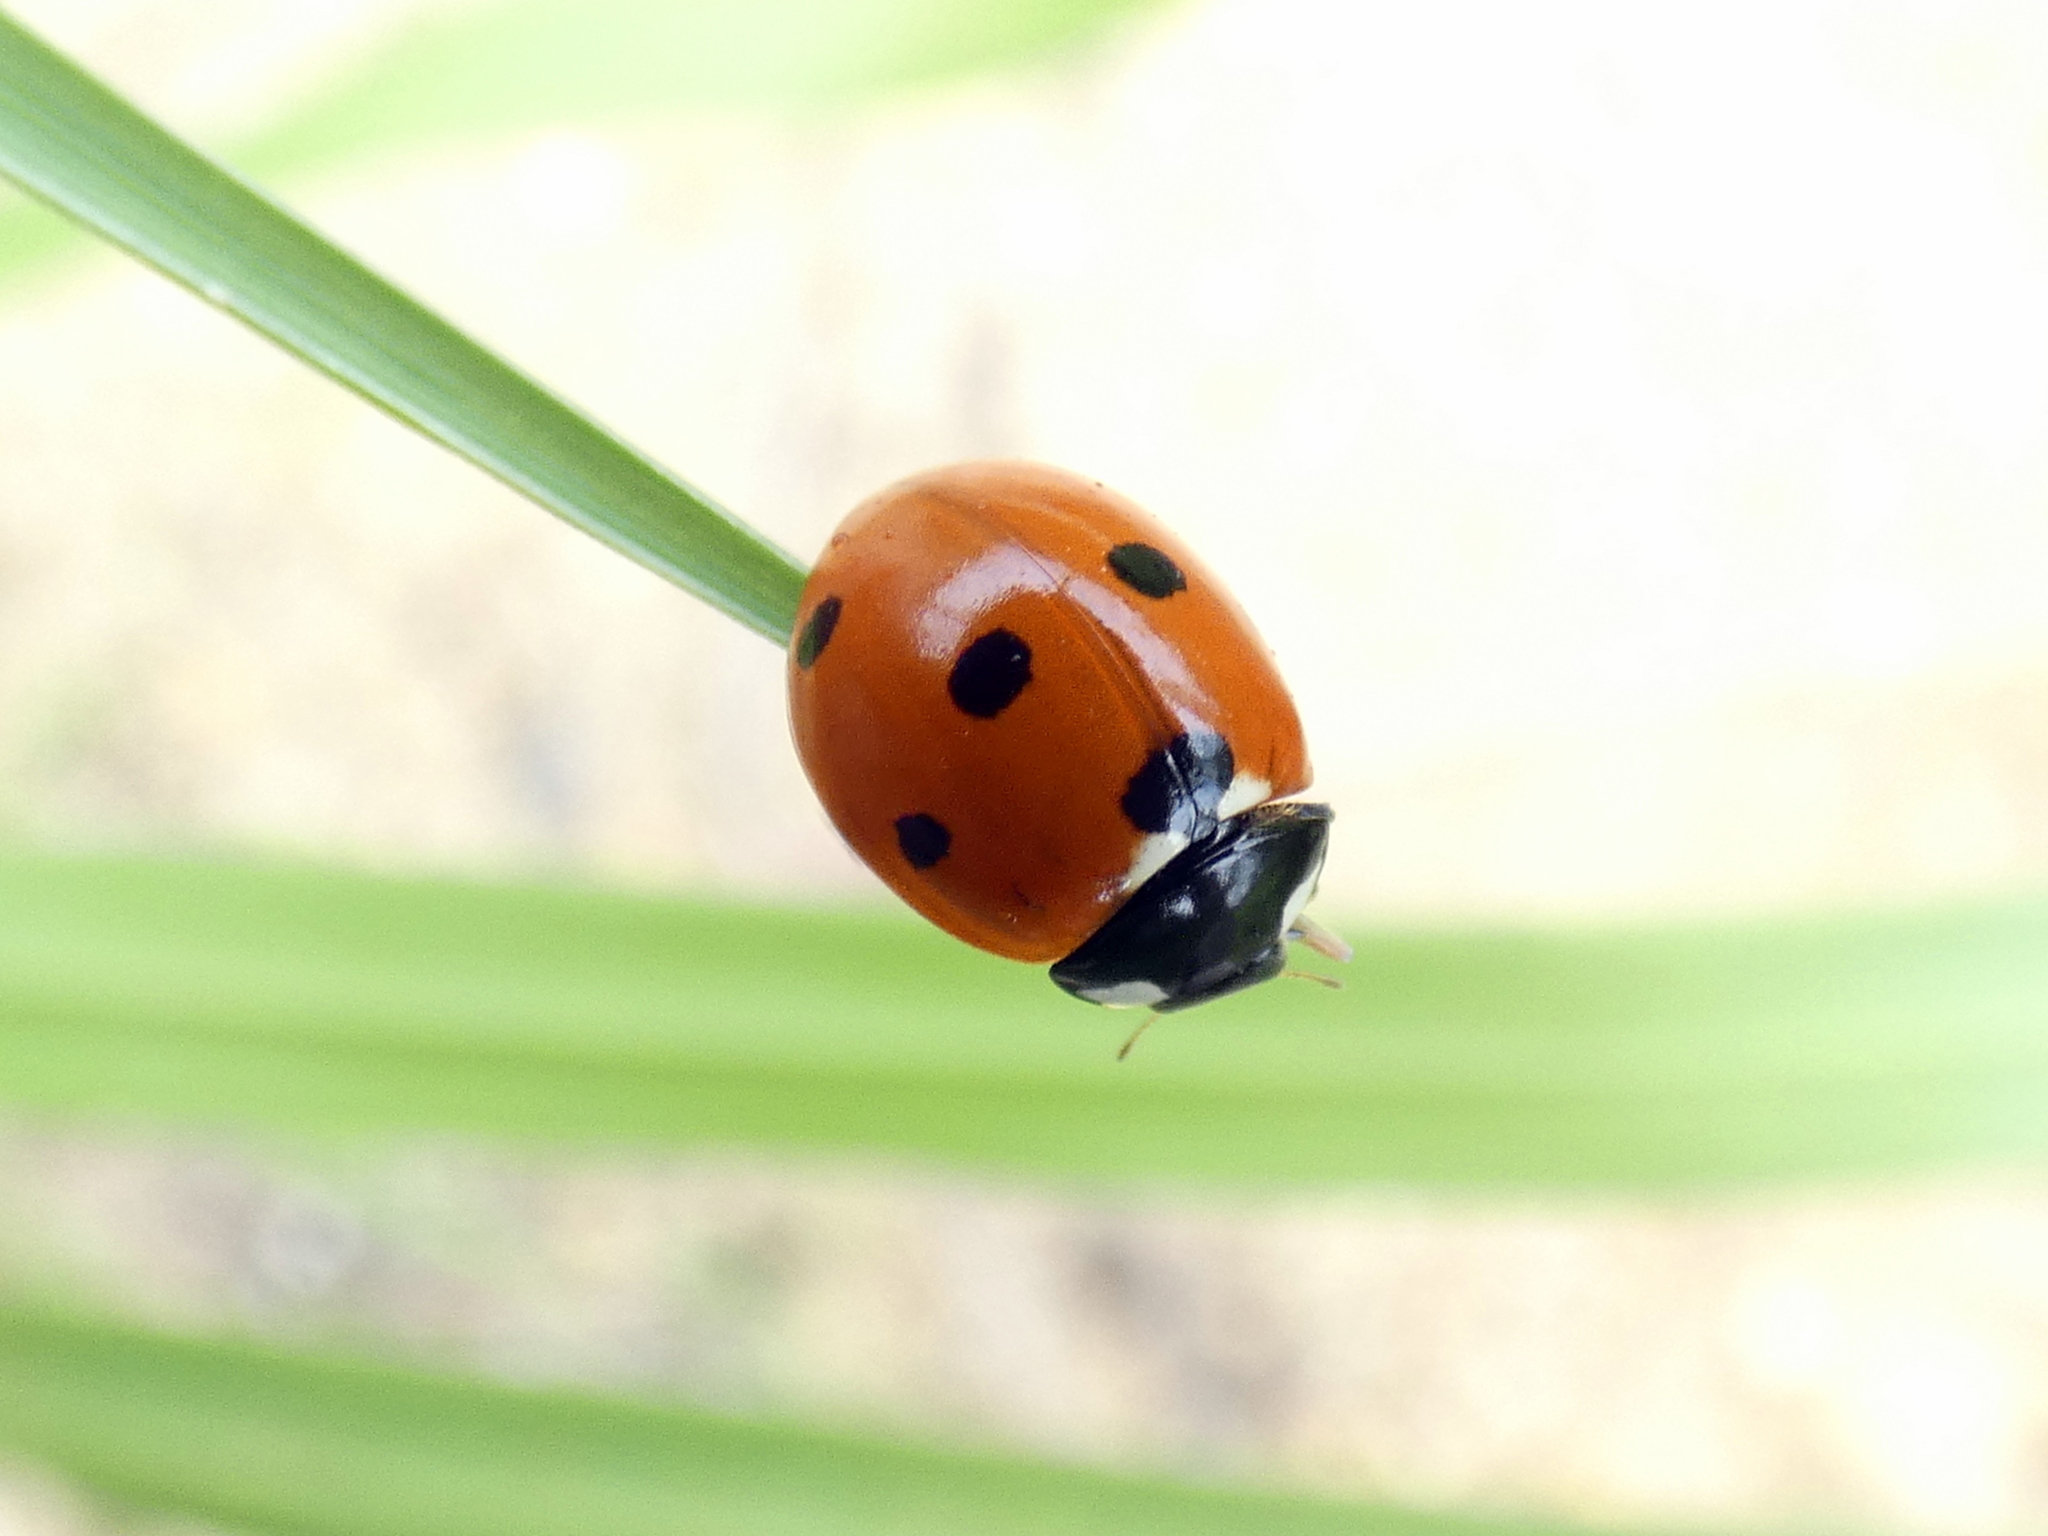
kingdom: Animalia
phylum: Arthropoda
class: Insecta
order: Coleoptera
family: Coccinellidae
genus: Coccinella
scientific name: Coccinella septempunctata
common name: Sevenspotted lady beetle
